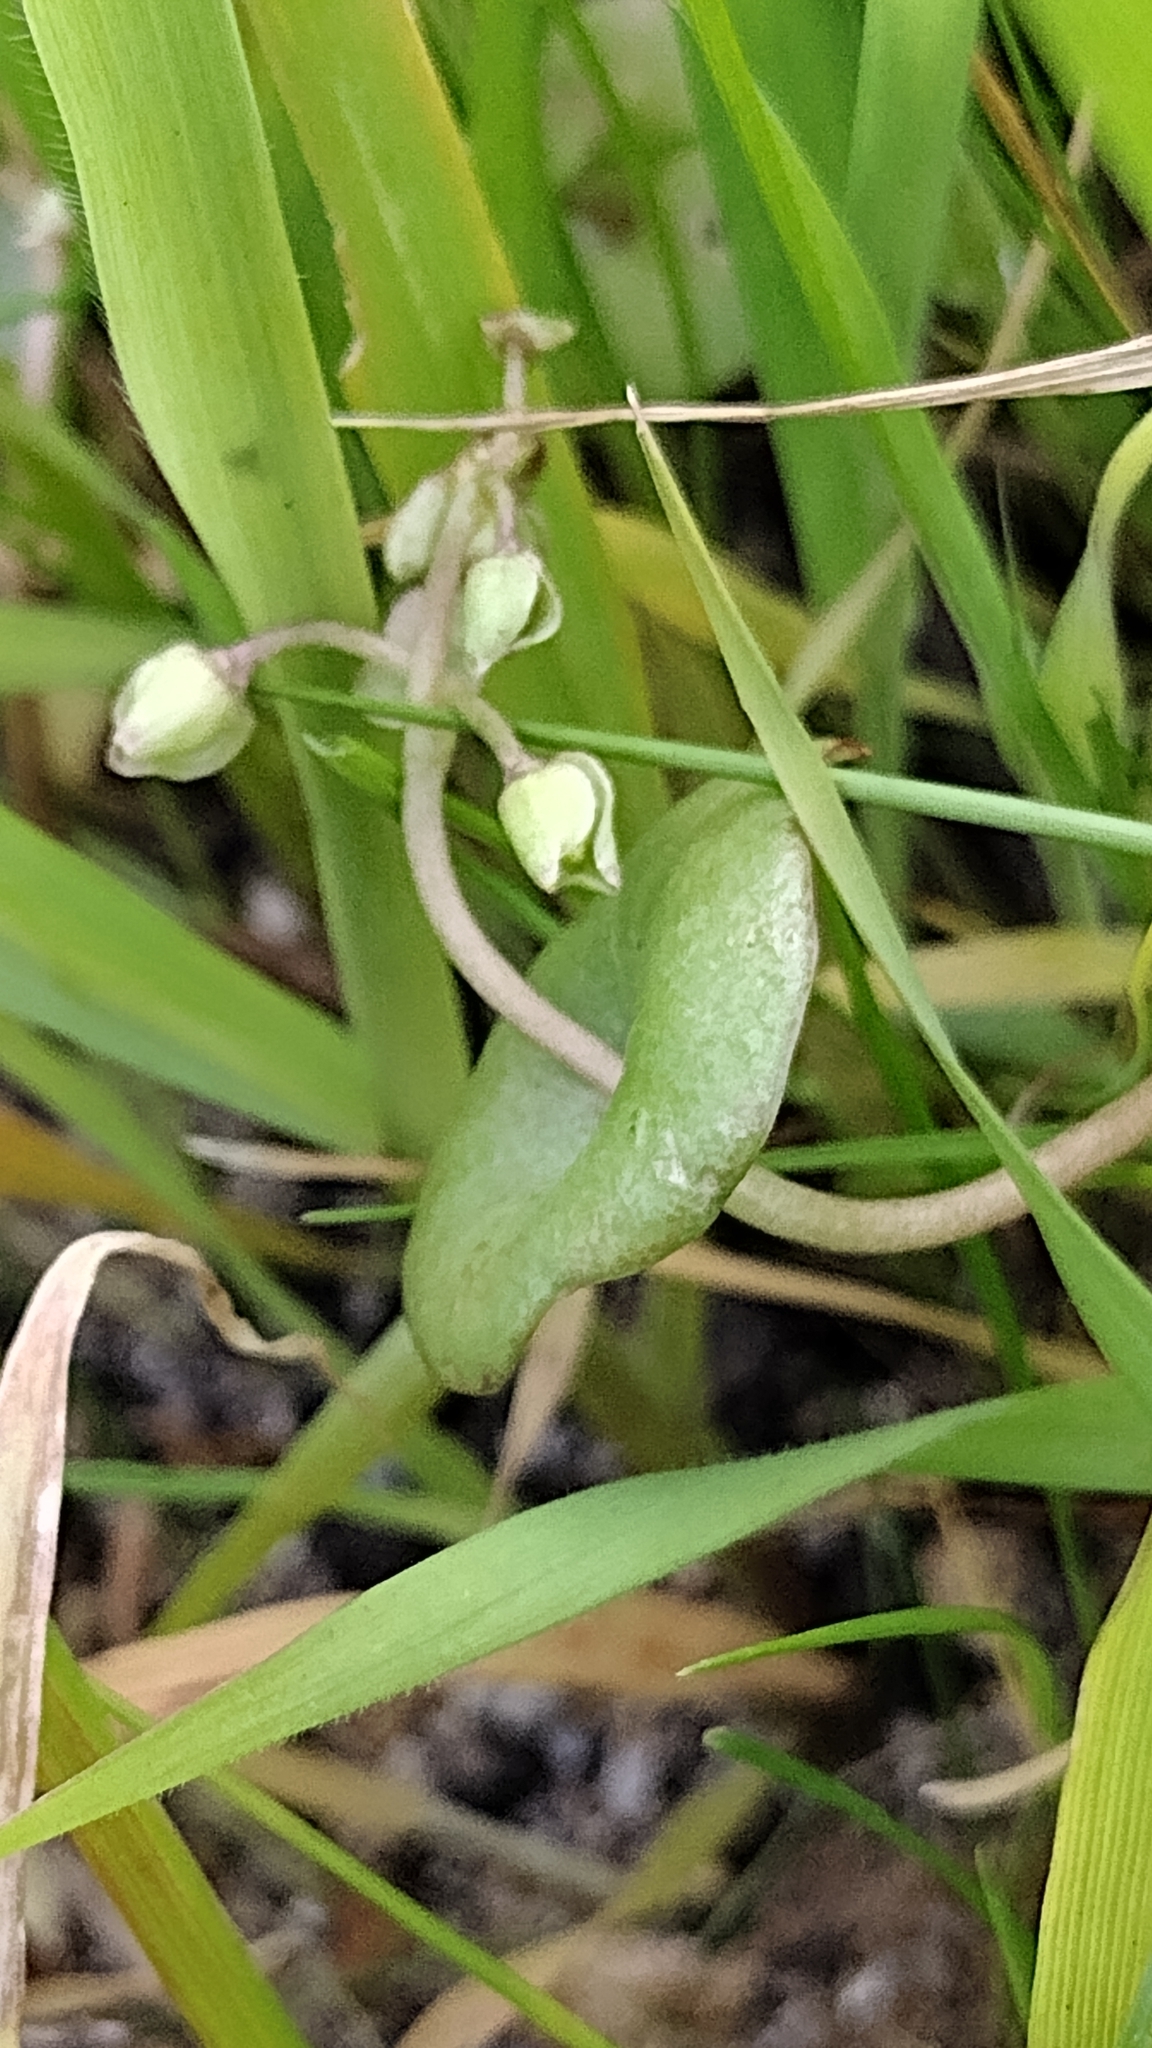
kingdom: Plantae
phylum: Tracheophyta
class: Magnoliopsida
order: Caryophyllales
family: Montiaceae
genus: Claytonia
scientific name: Claytonia perfoliata
